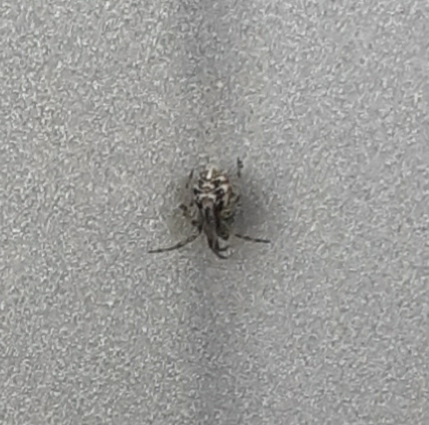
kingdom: Animalia
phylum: Arthropoda
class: Arachnida
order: Araneae
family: Theridiidae
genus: Phylloneta
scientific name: Phylloneta
